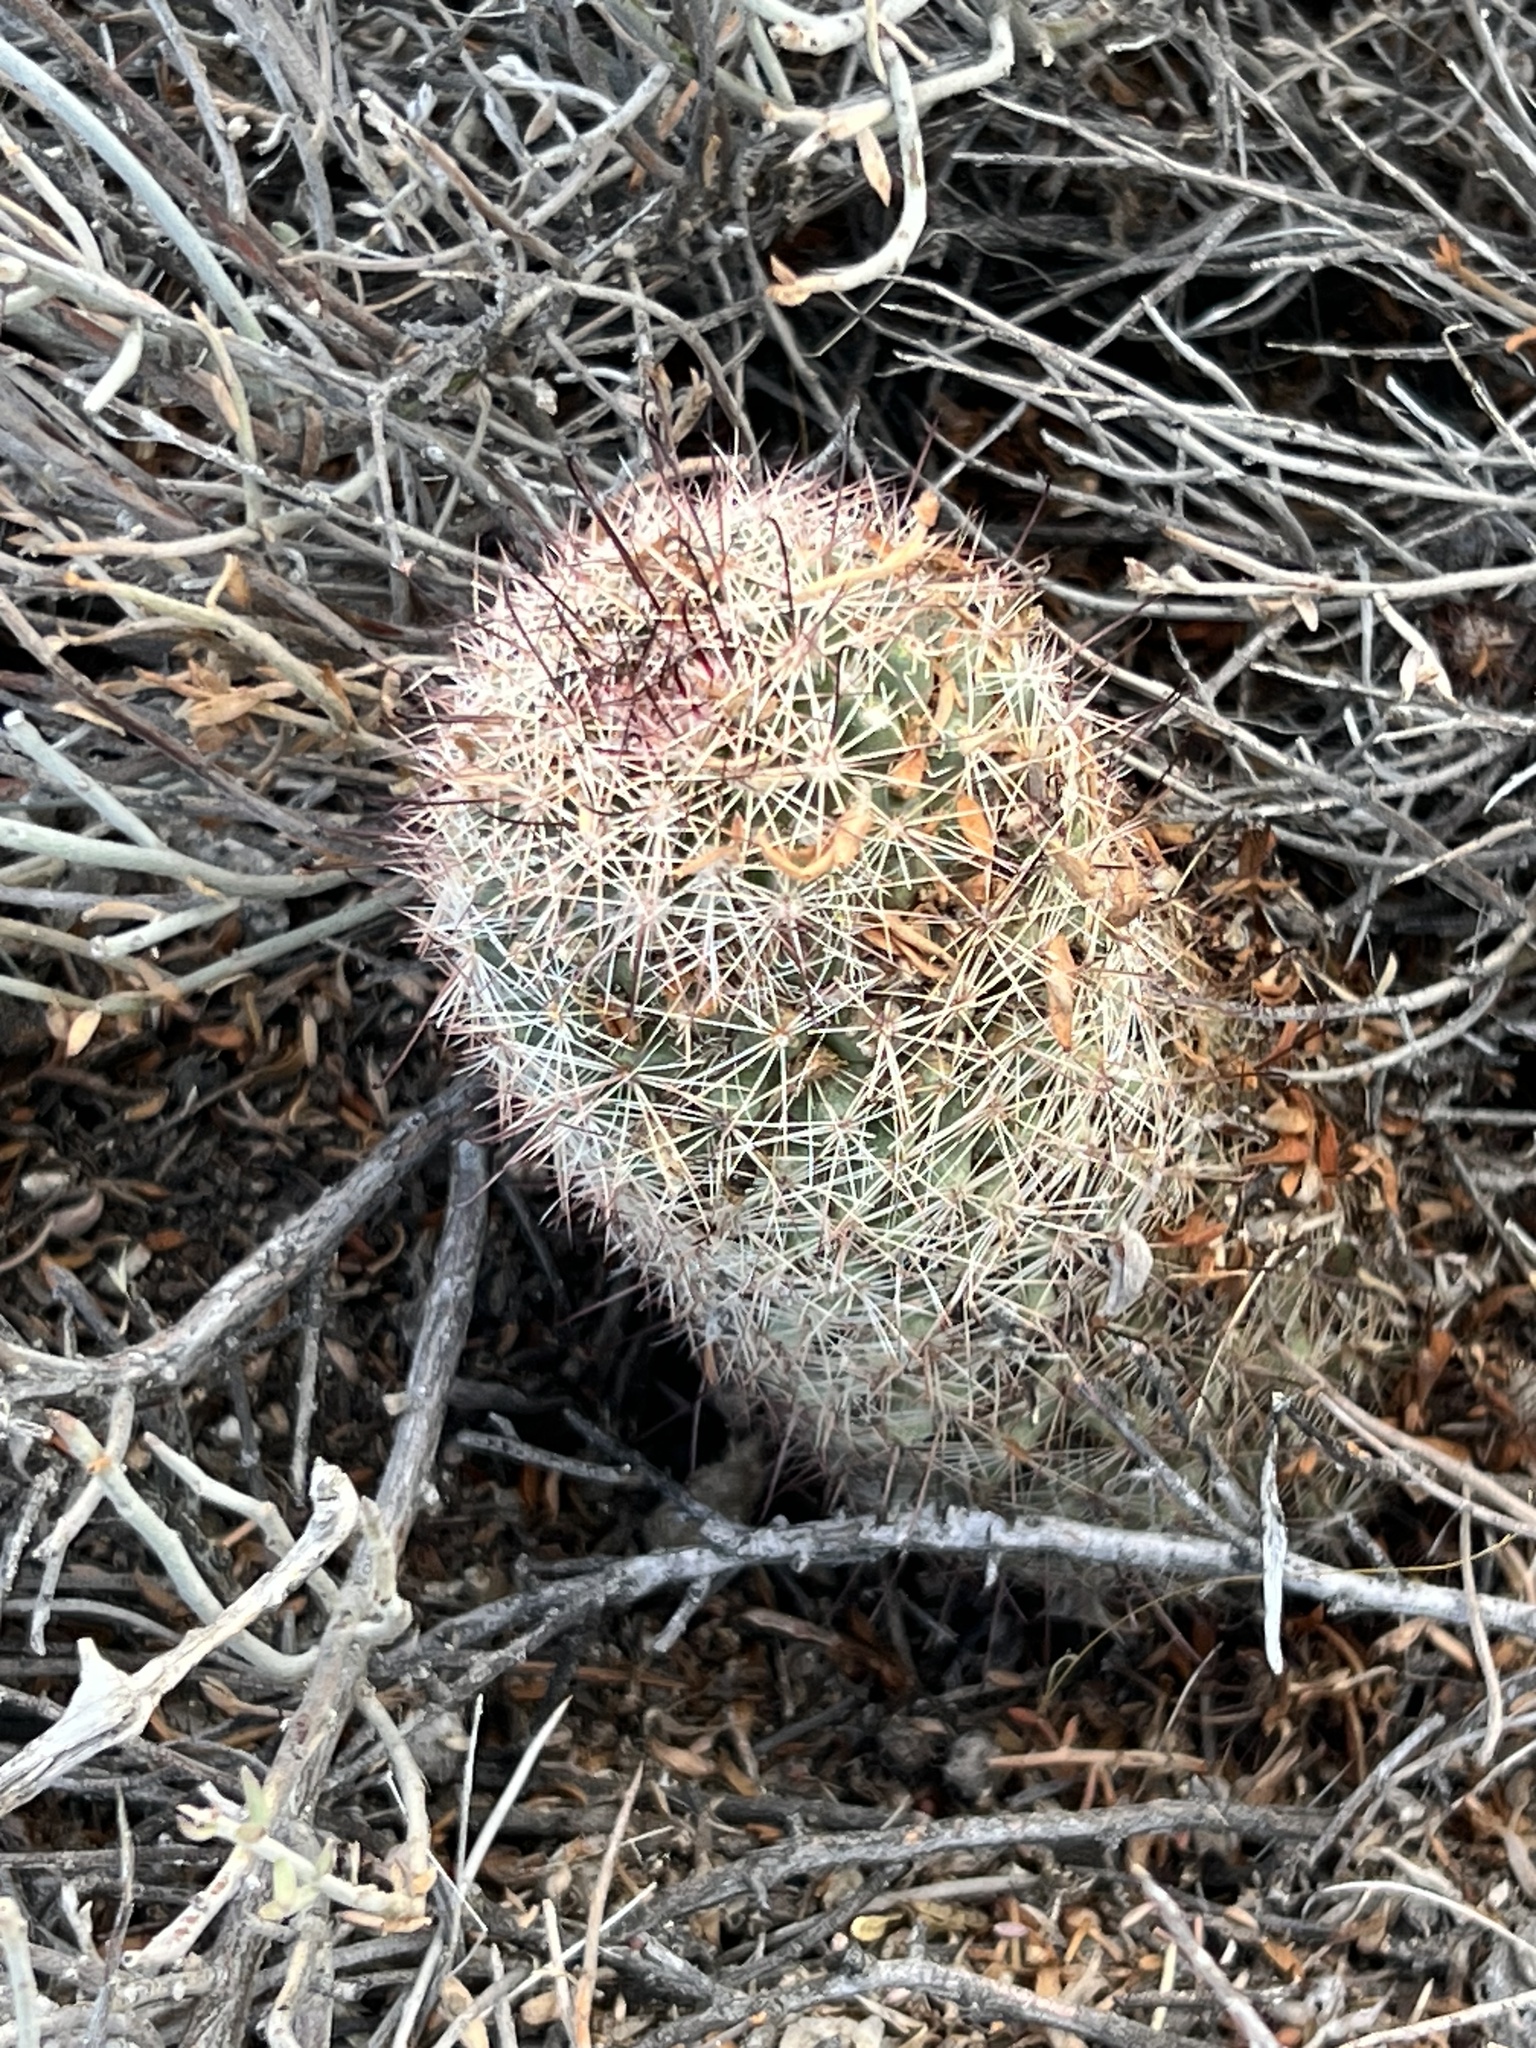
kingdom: Plantae
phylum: Tracheophyta
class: Magnoliopsida
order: Caryophyllales
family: Cactaceae
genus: Cochemiea
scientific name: Cochemiea dioica
